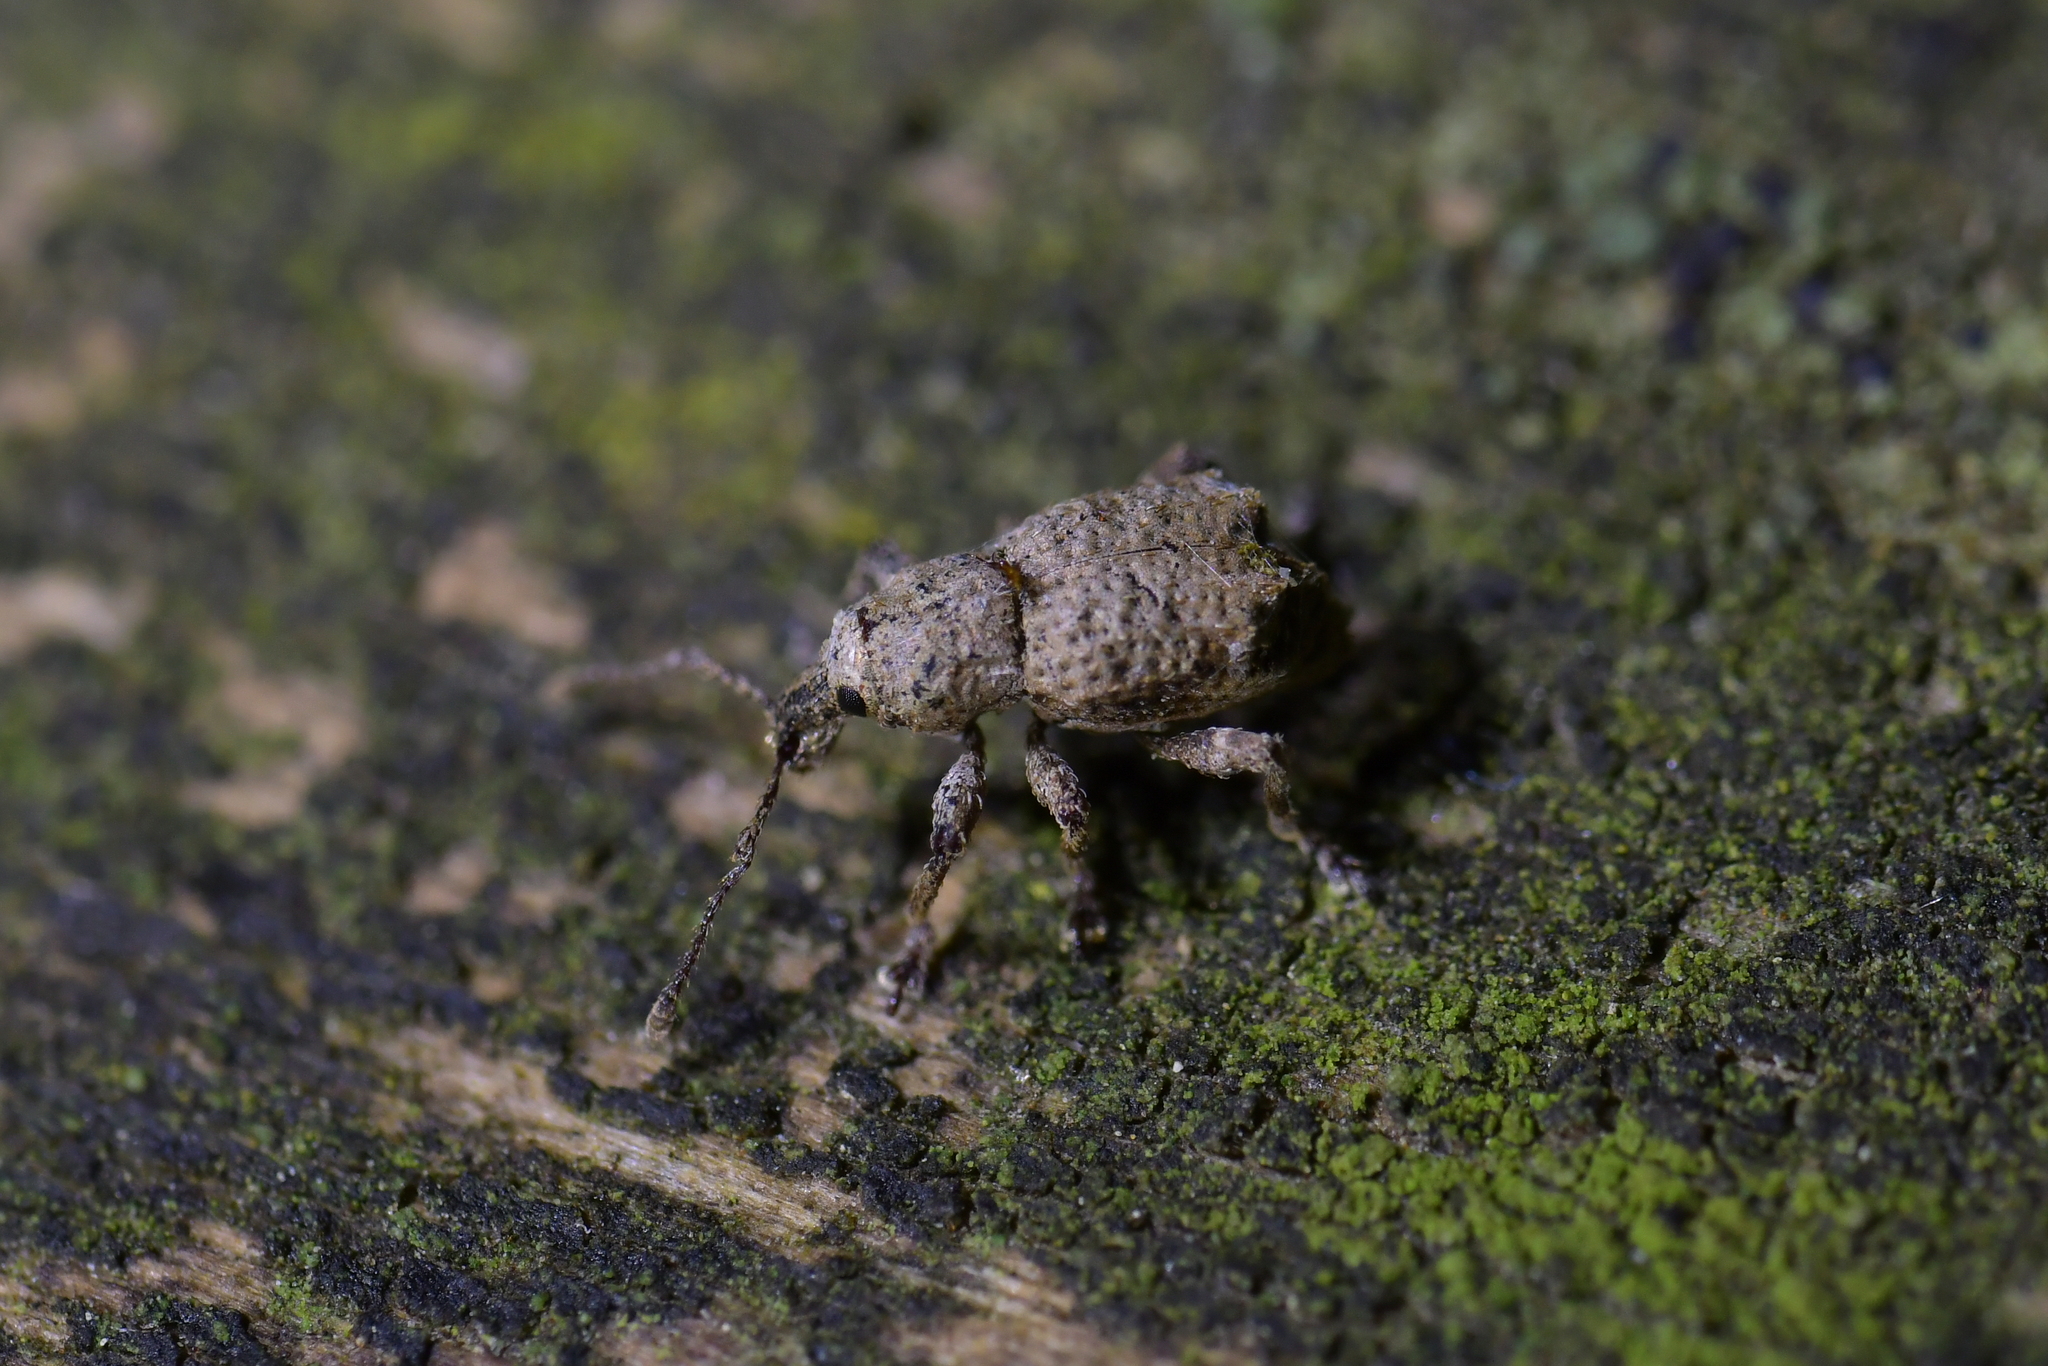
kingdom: Animalia
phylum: Arthropoda
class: Insecta
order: Coleoptera
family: Curculionidae
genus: Chalepistes
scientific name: Chalepistes costifer
